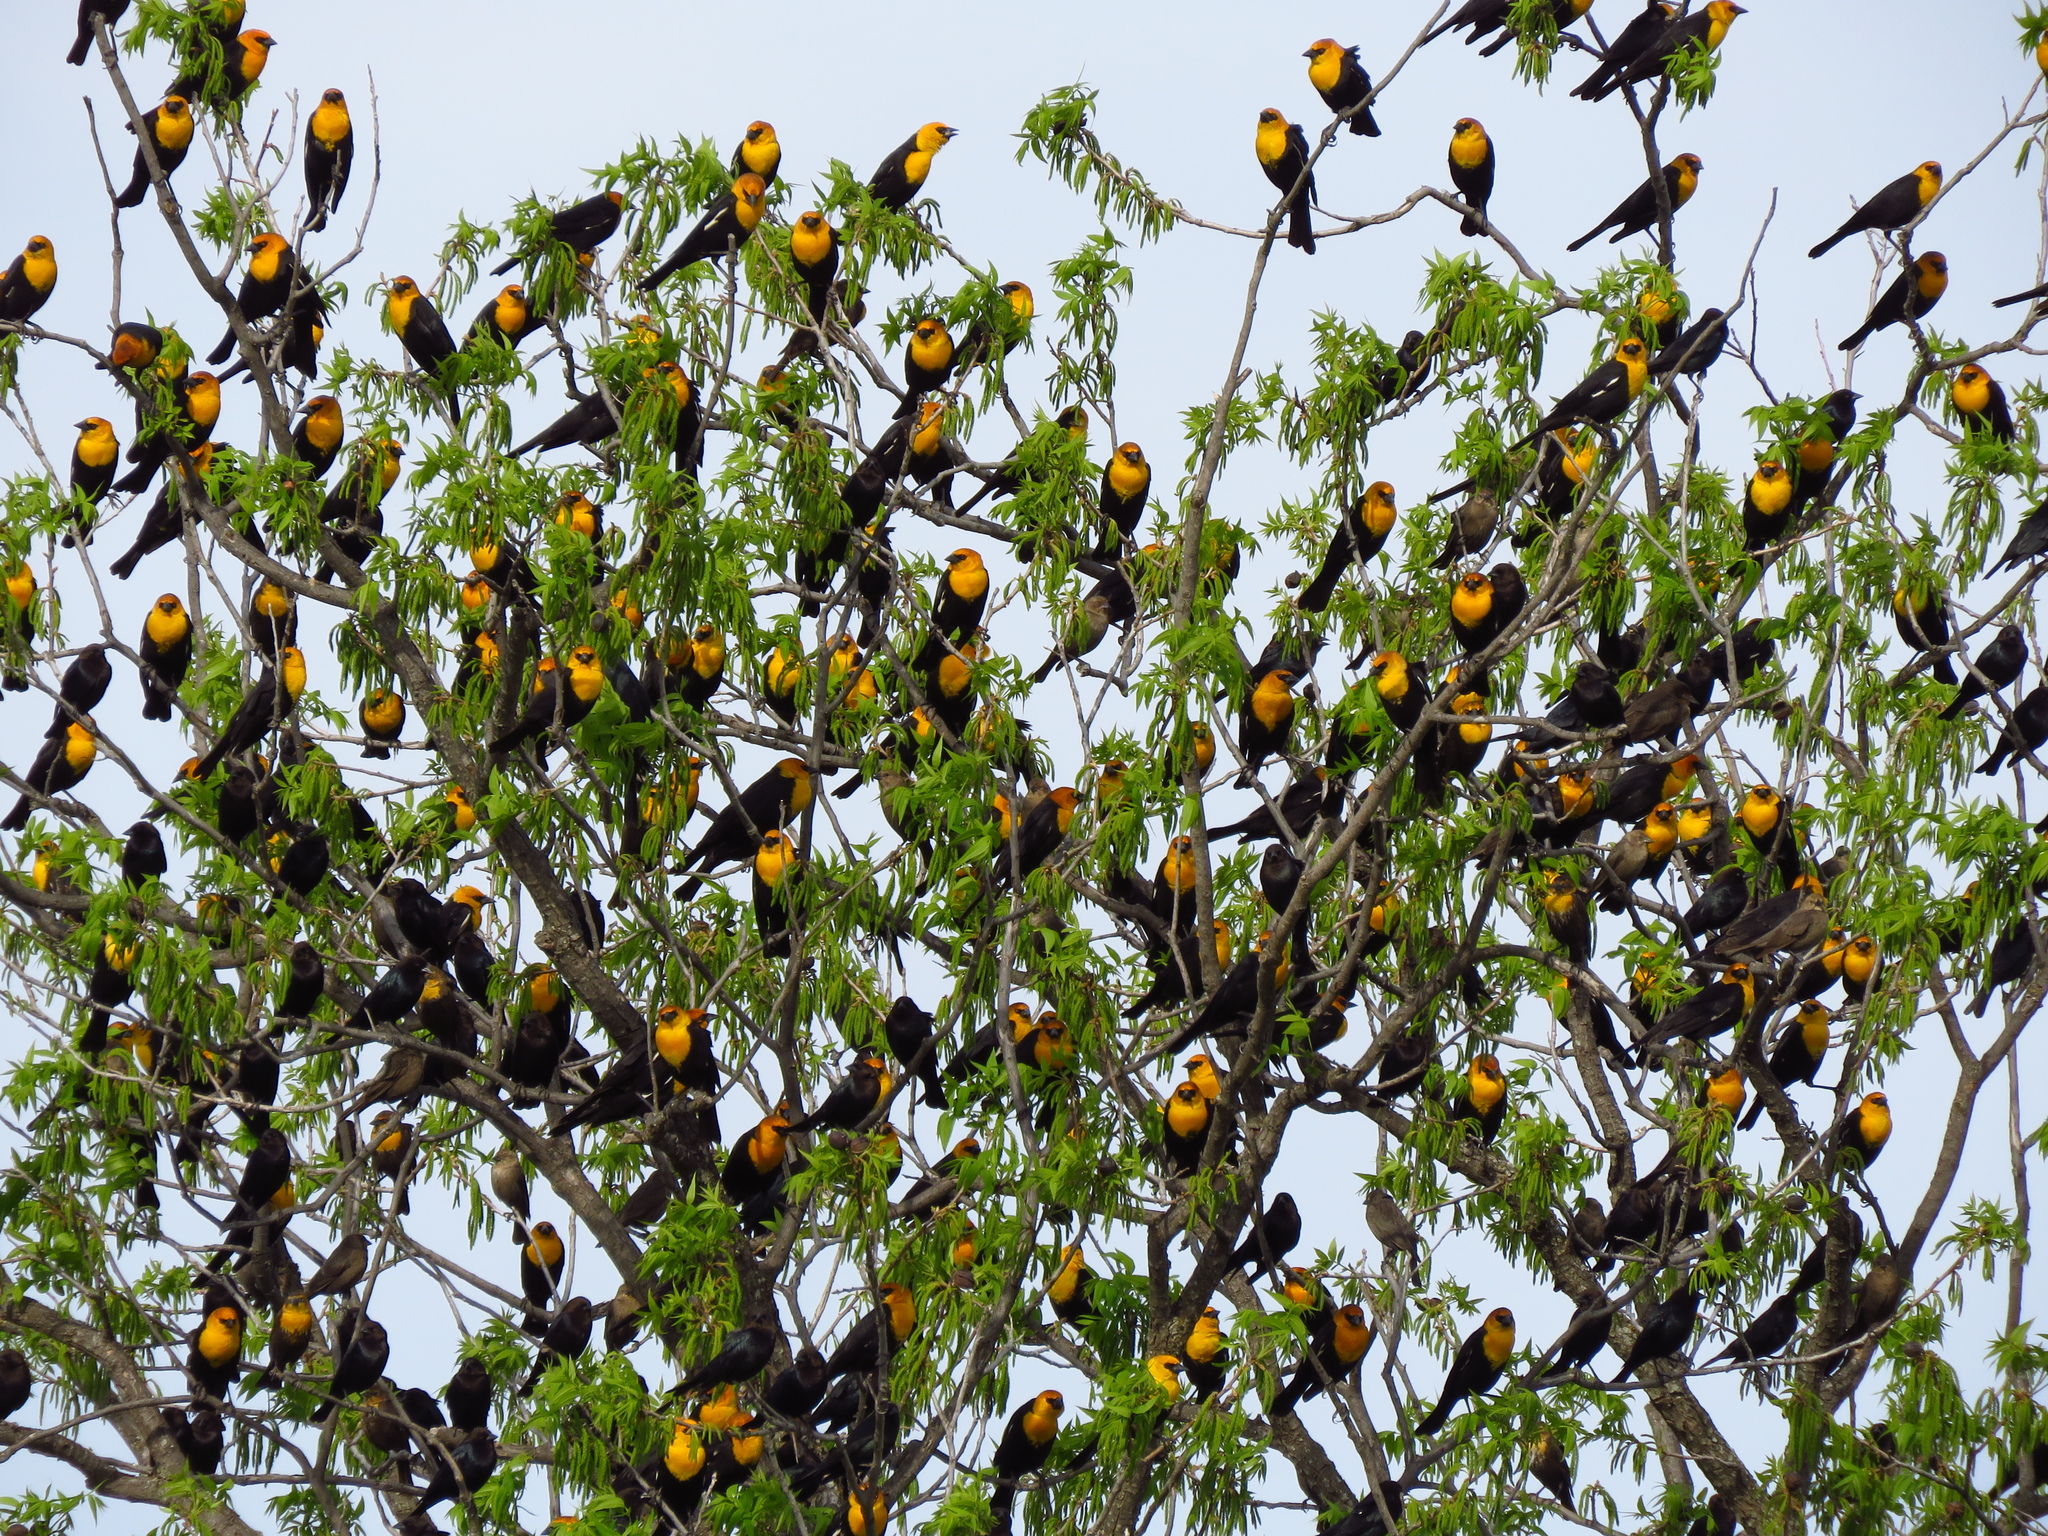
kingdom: Animalia
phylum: Chordata
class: Aves
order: Passeriformes
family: Icteridae
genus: Xanthocephalus
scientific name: Xanthocephalus xanthocephalus
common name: Yellow-headed blackbird
